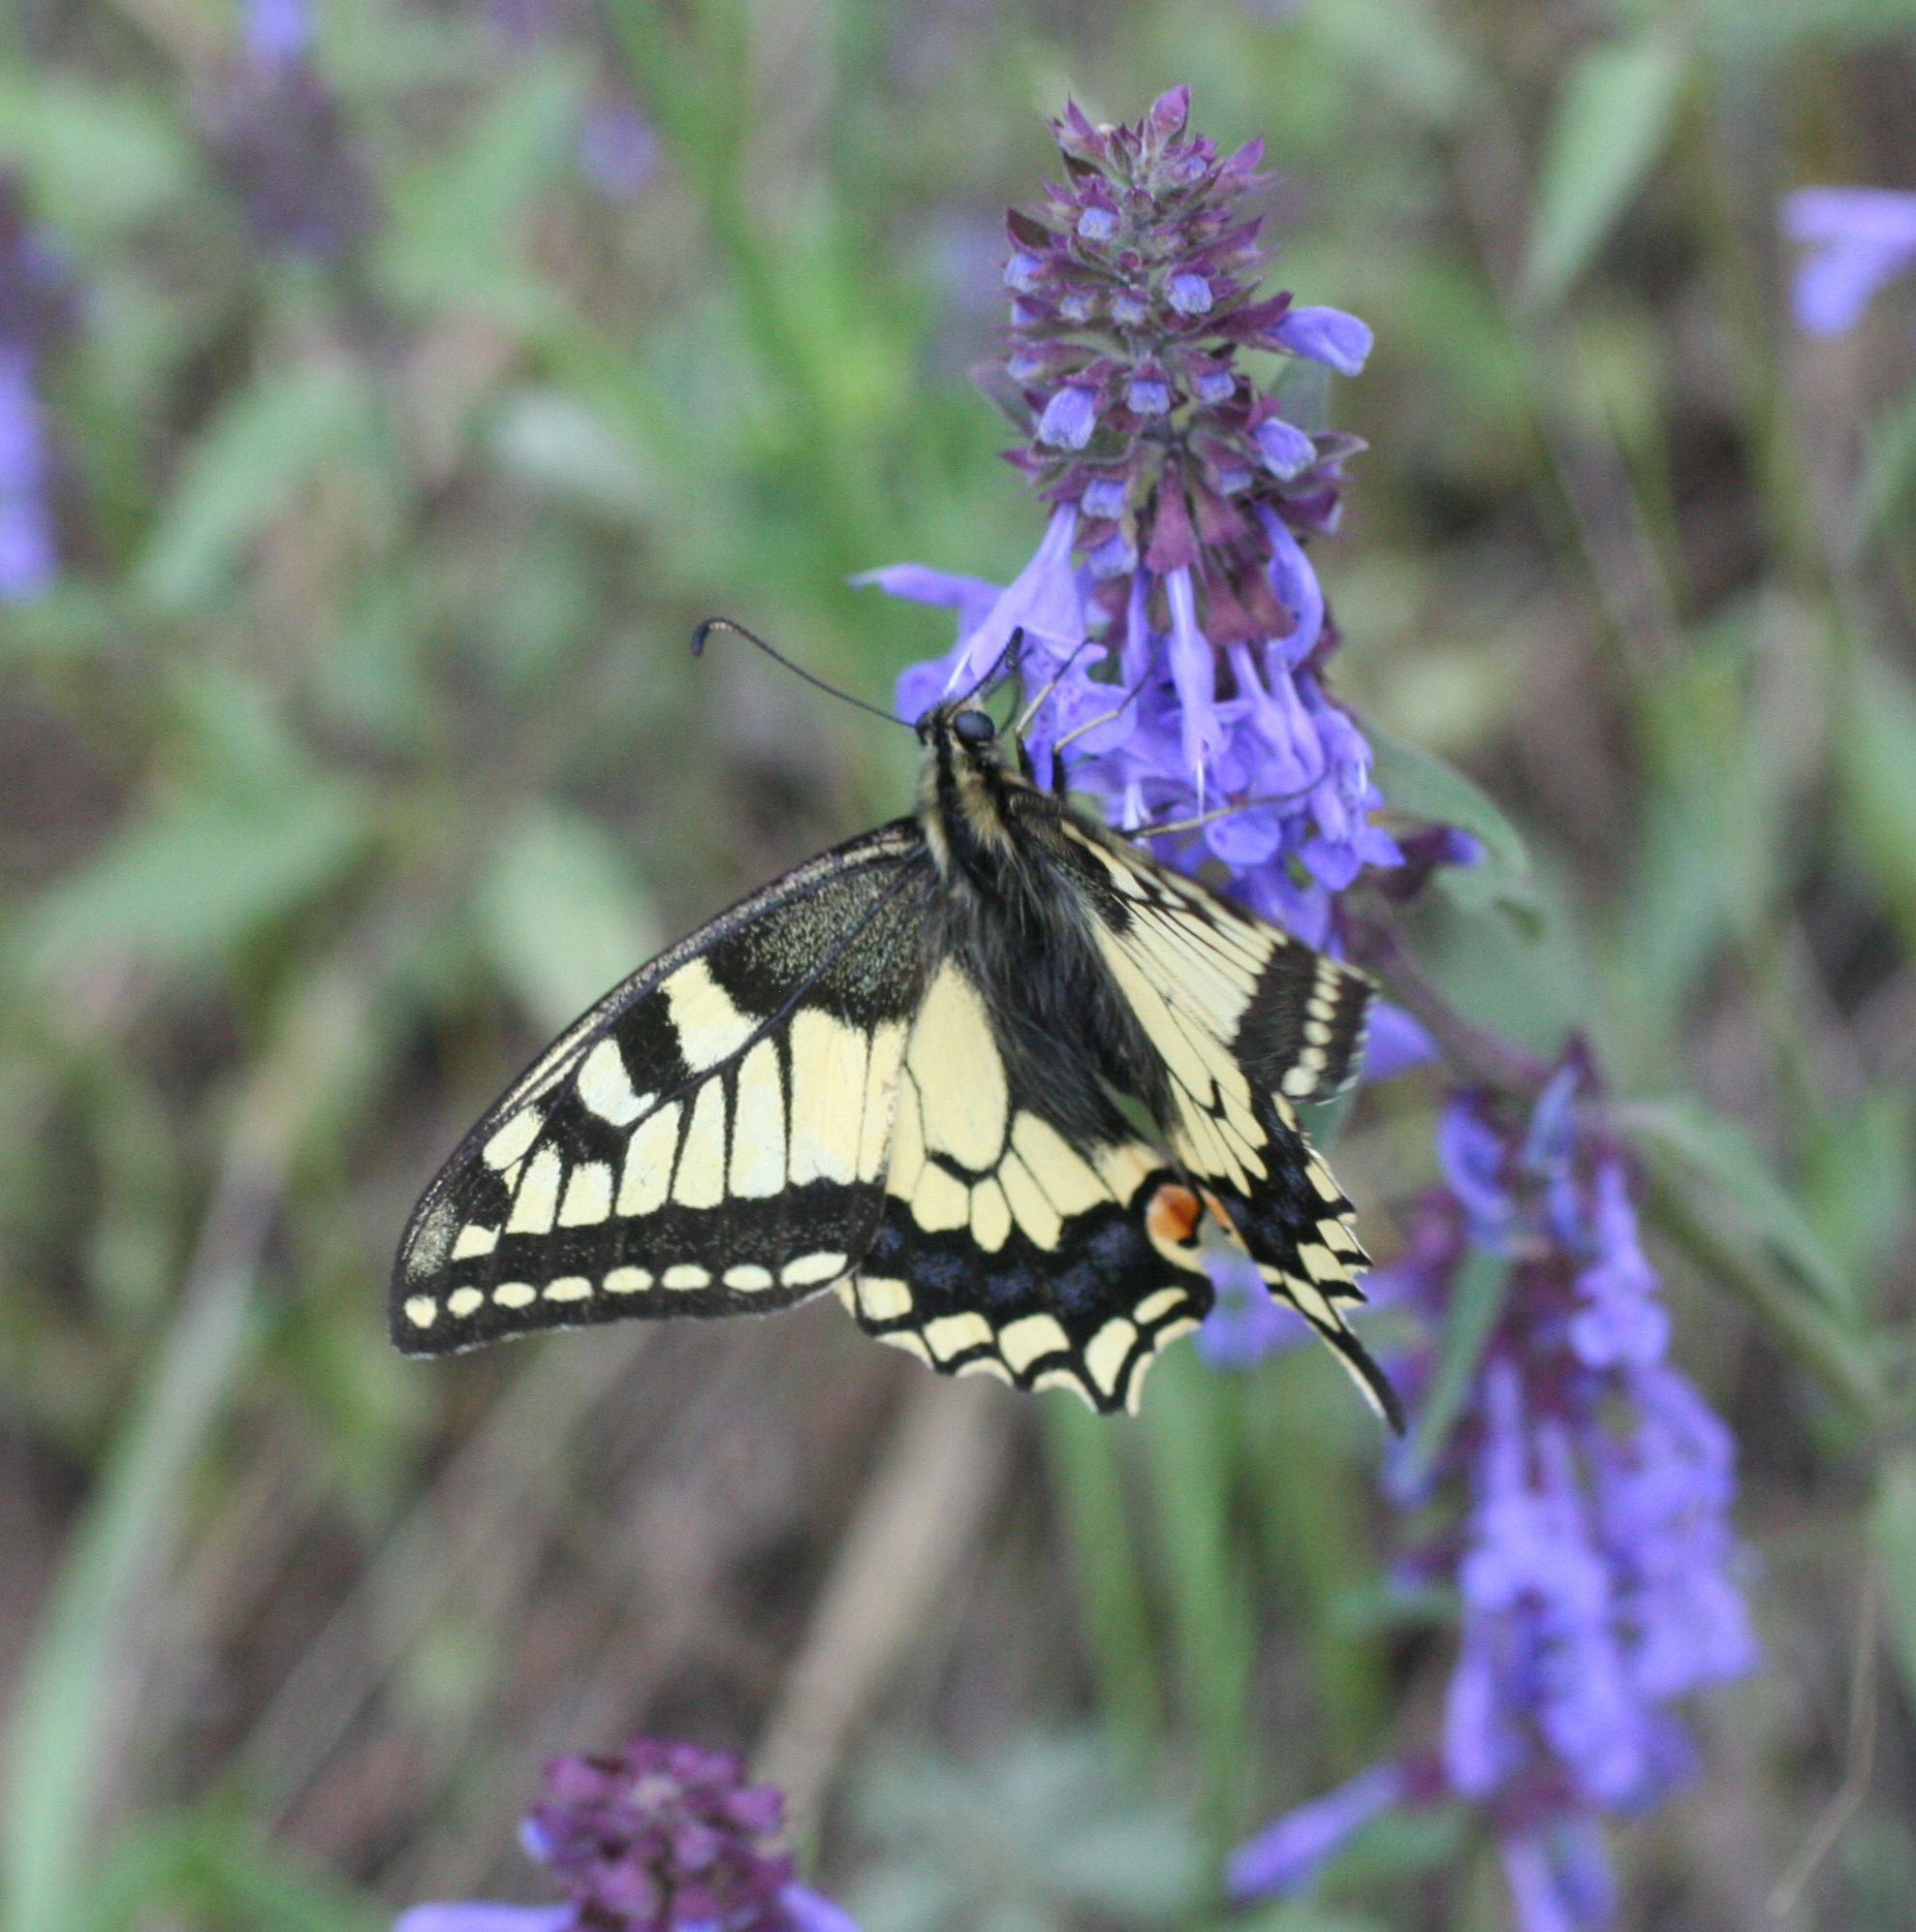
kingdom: Plantae
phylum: Tracheophyta
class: Magnoliopsida
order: Lamiales
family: Lamiaceae
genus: Dracocephalum
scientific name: Dracocephalum nutans
